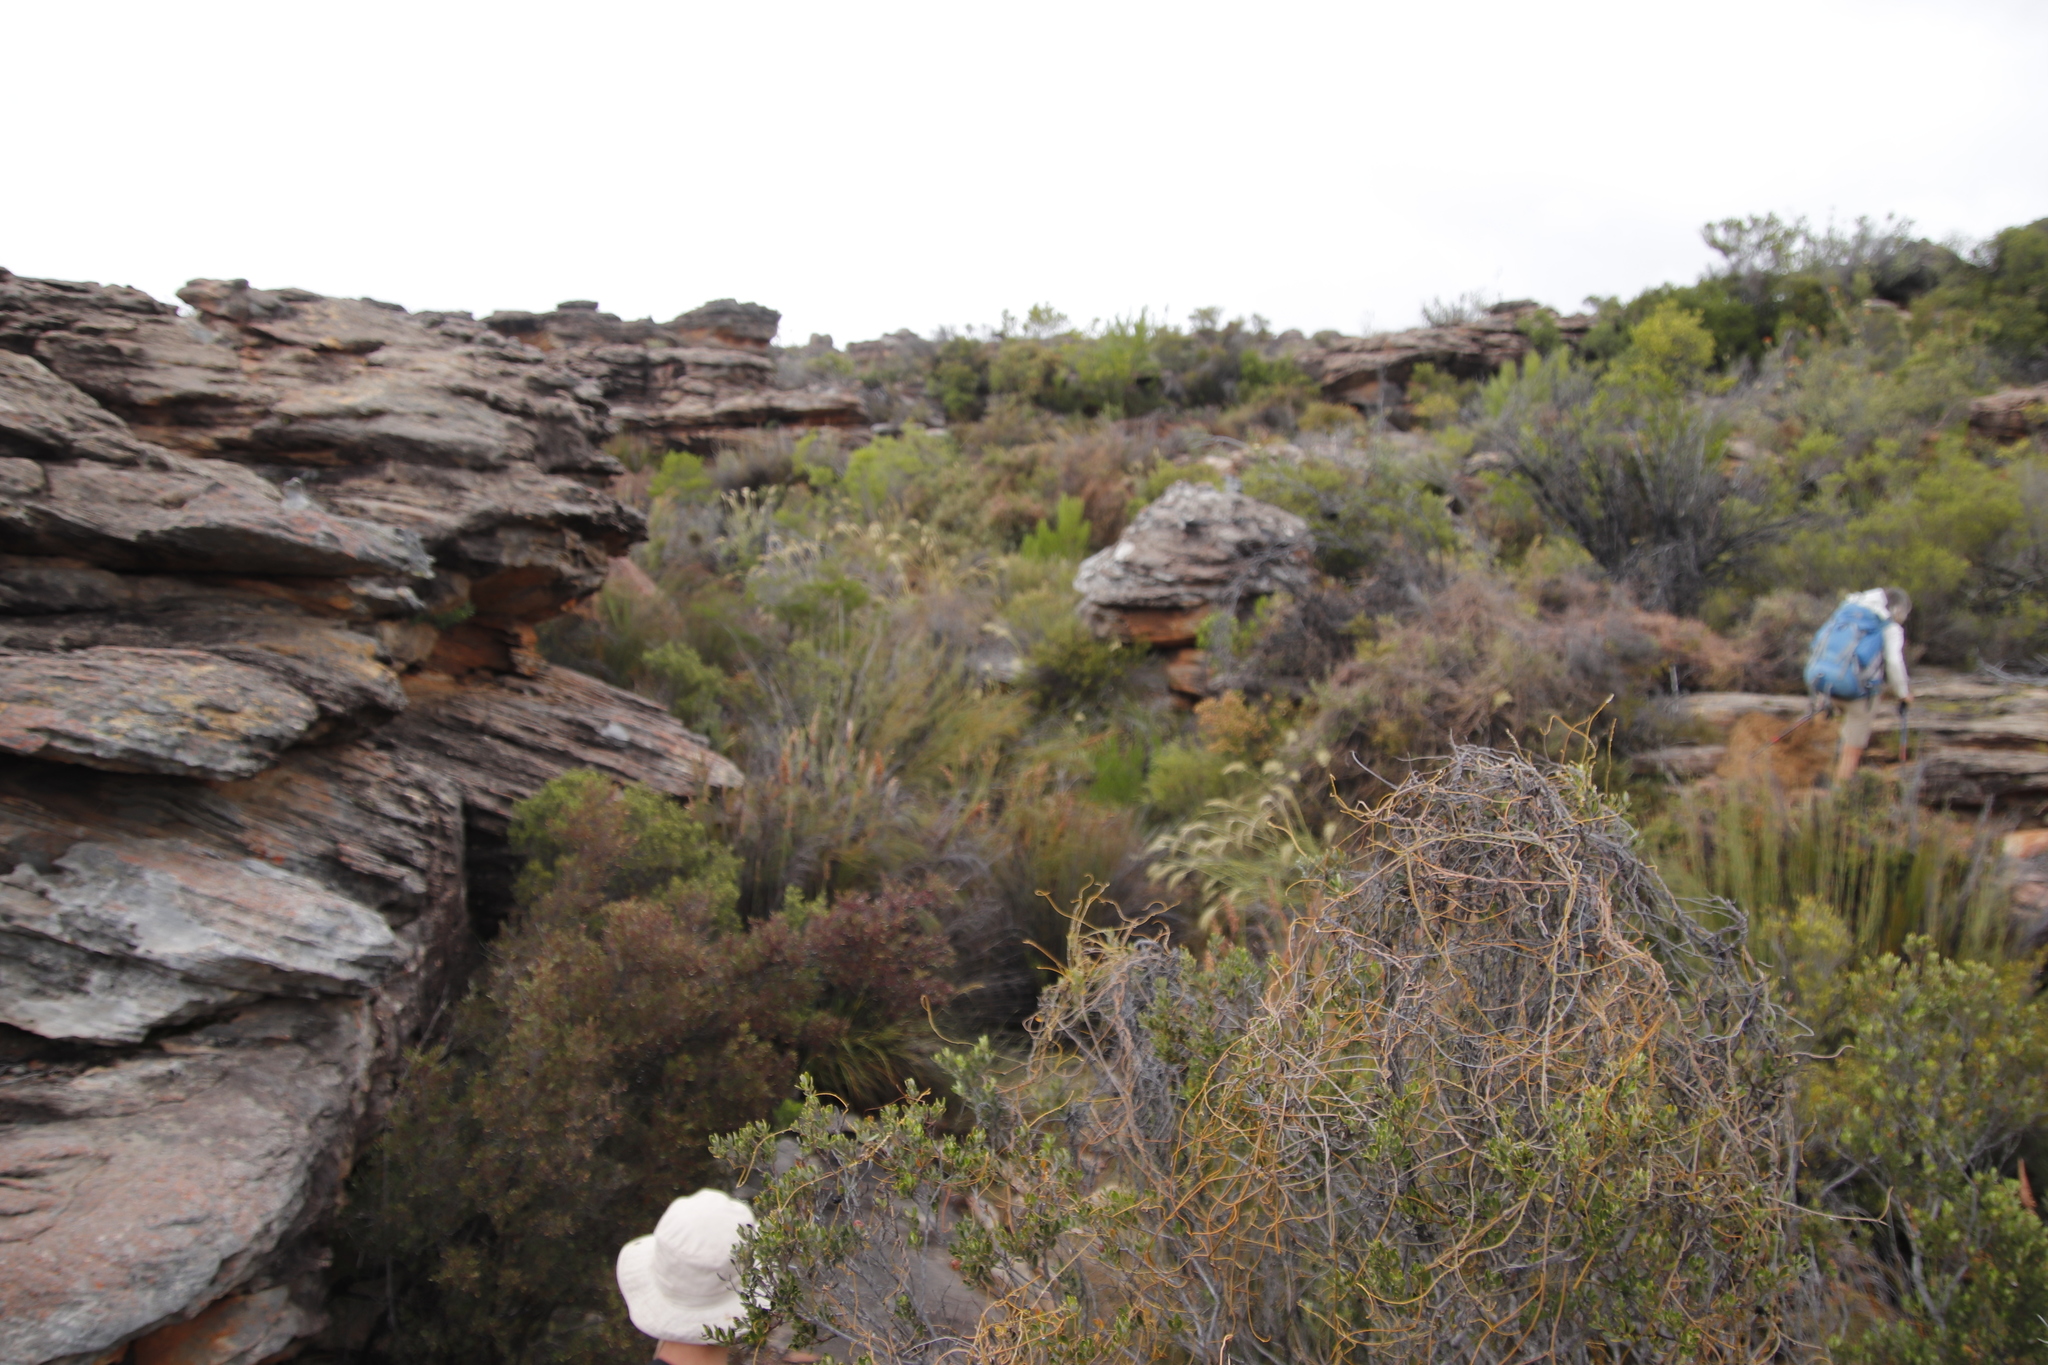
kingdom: Plantae
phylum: Tracheophyta
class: Magnoliopsida
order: Laurales
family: Lauraceae
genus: Cassytha
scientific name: Cassytha ciliolata
